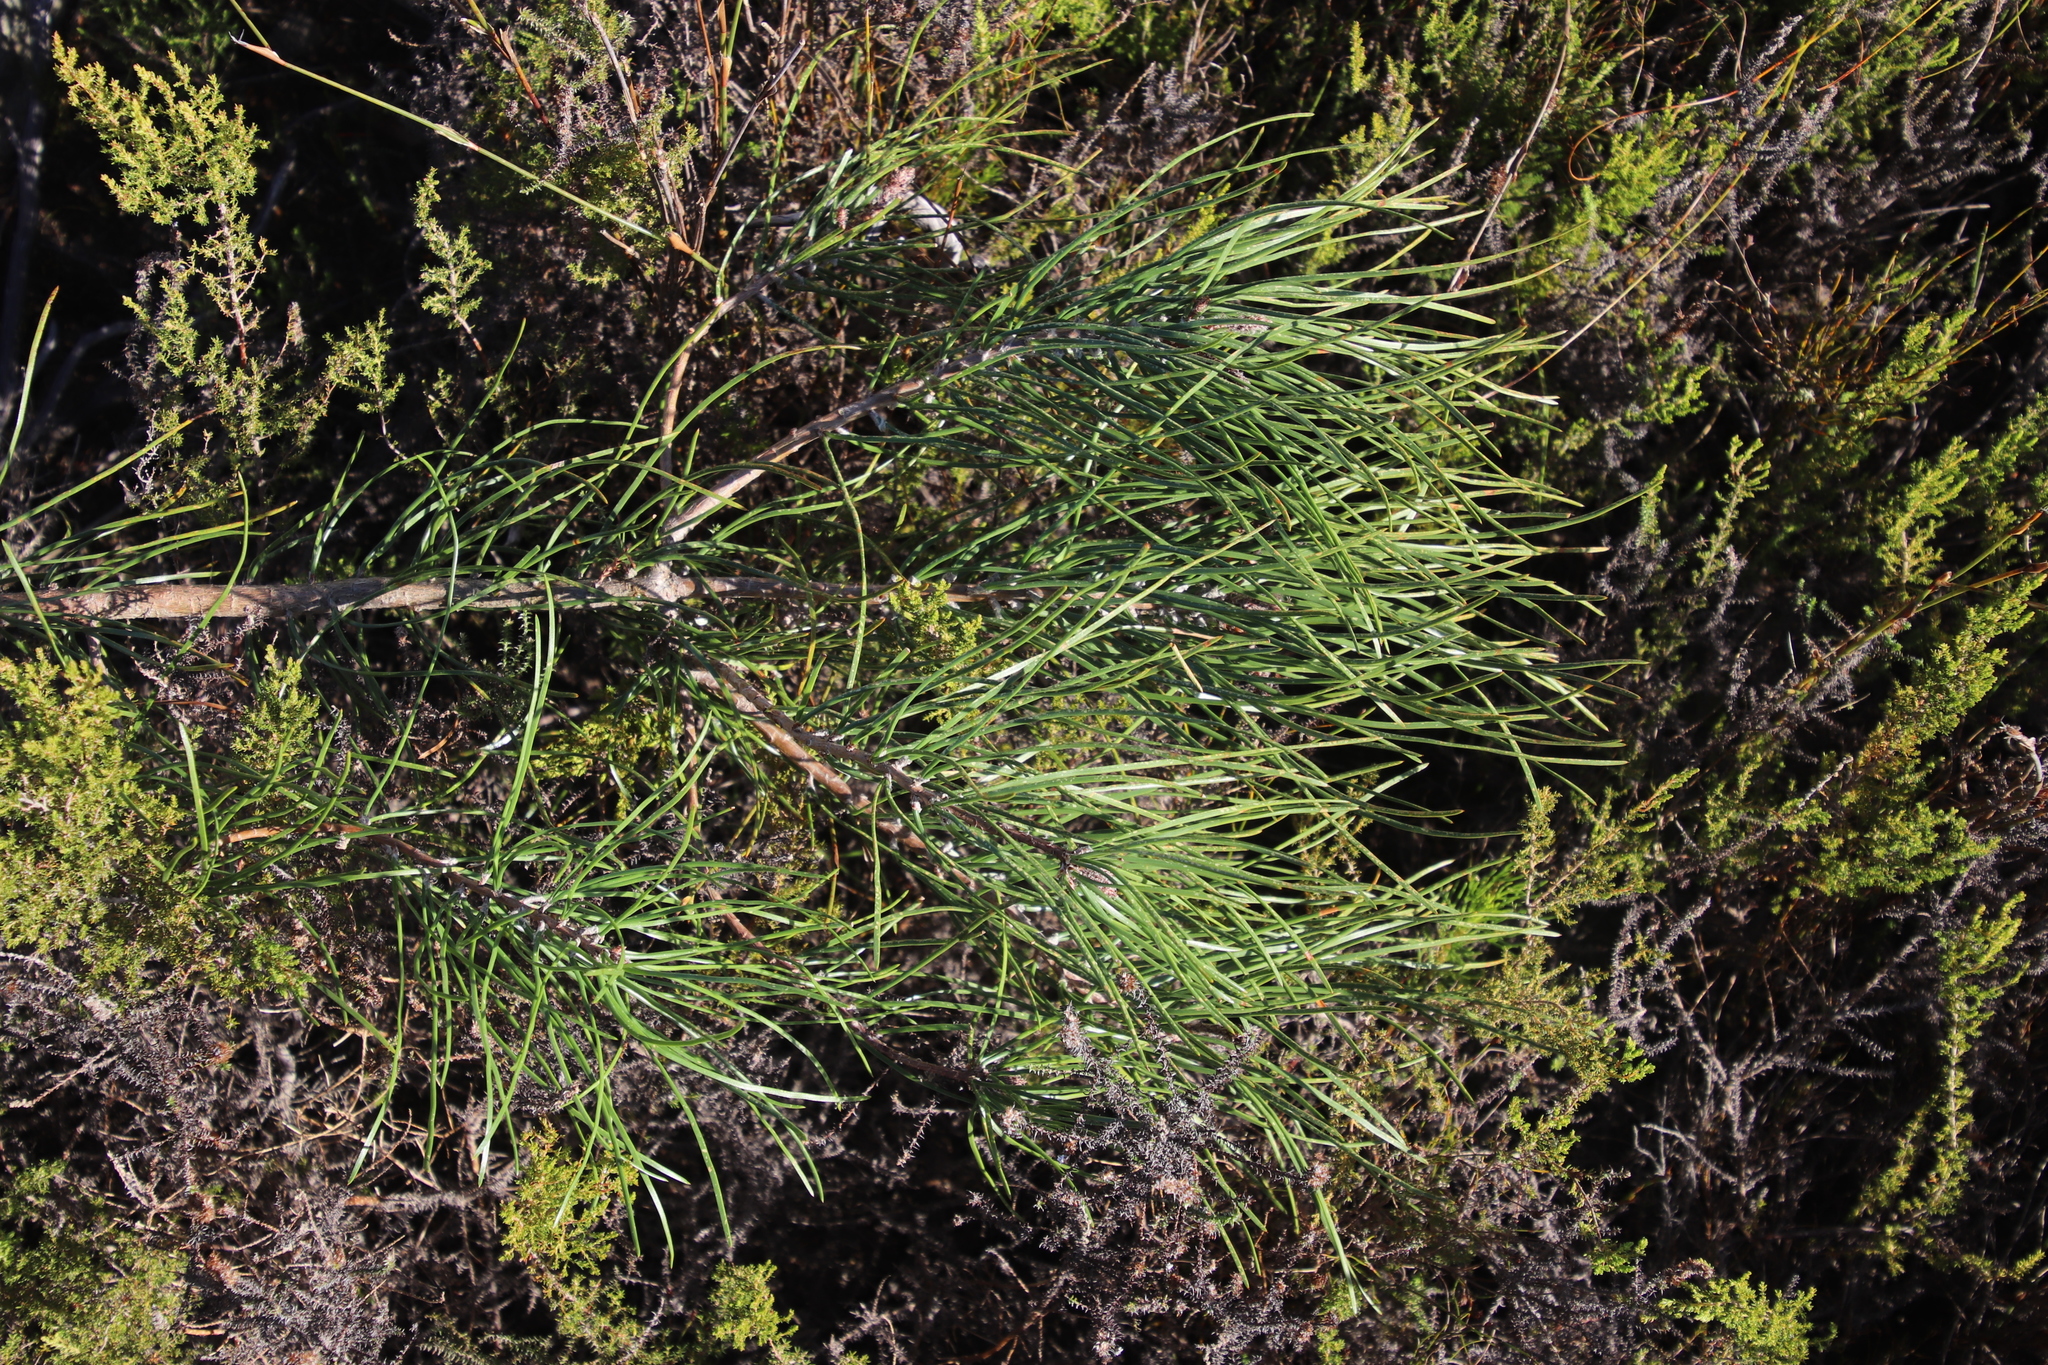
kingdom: Plantae
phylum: Tracheophyta
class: Pinopsida
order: Pinales
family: Pinaceae
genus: Pinus
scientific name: Pinus pinaster
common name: Maritime pine
